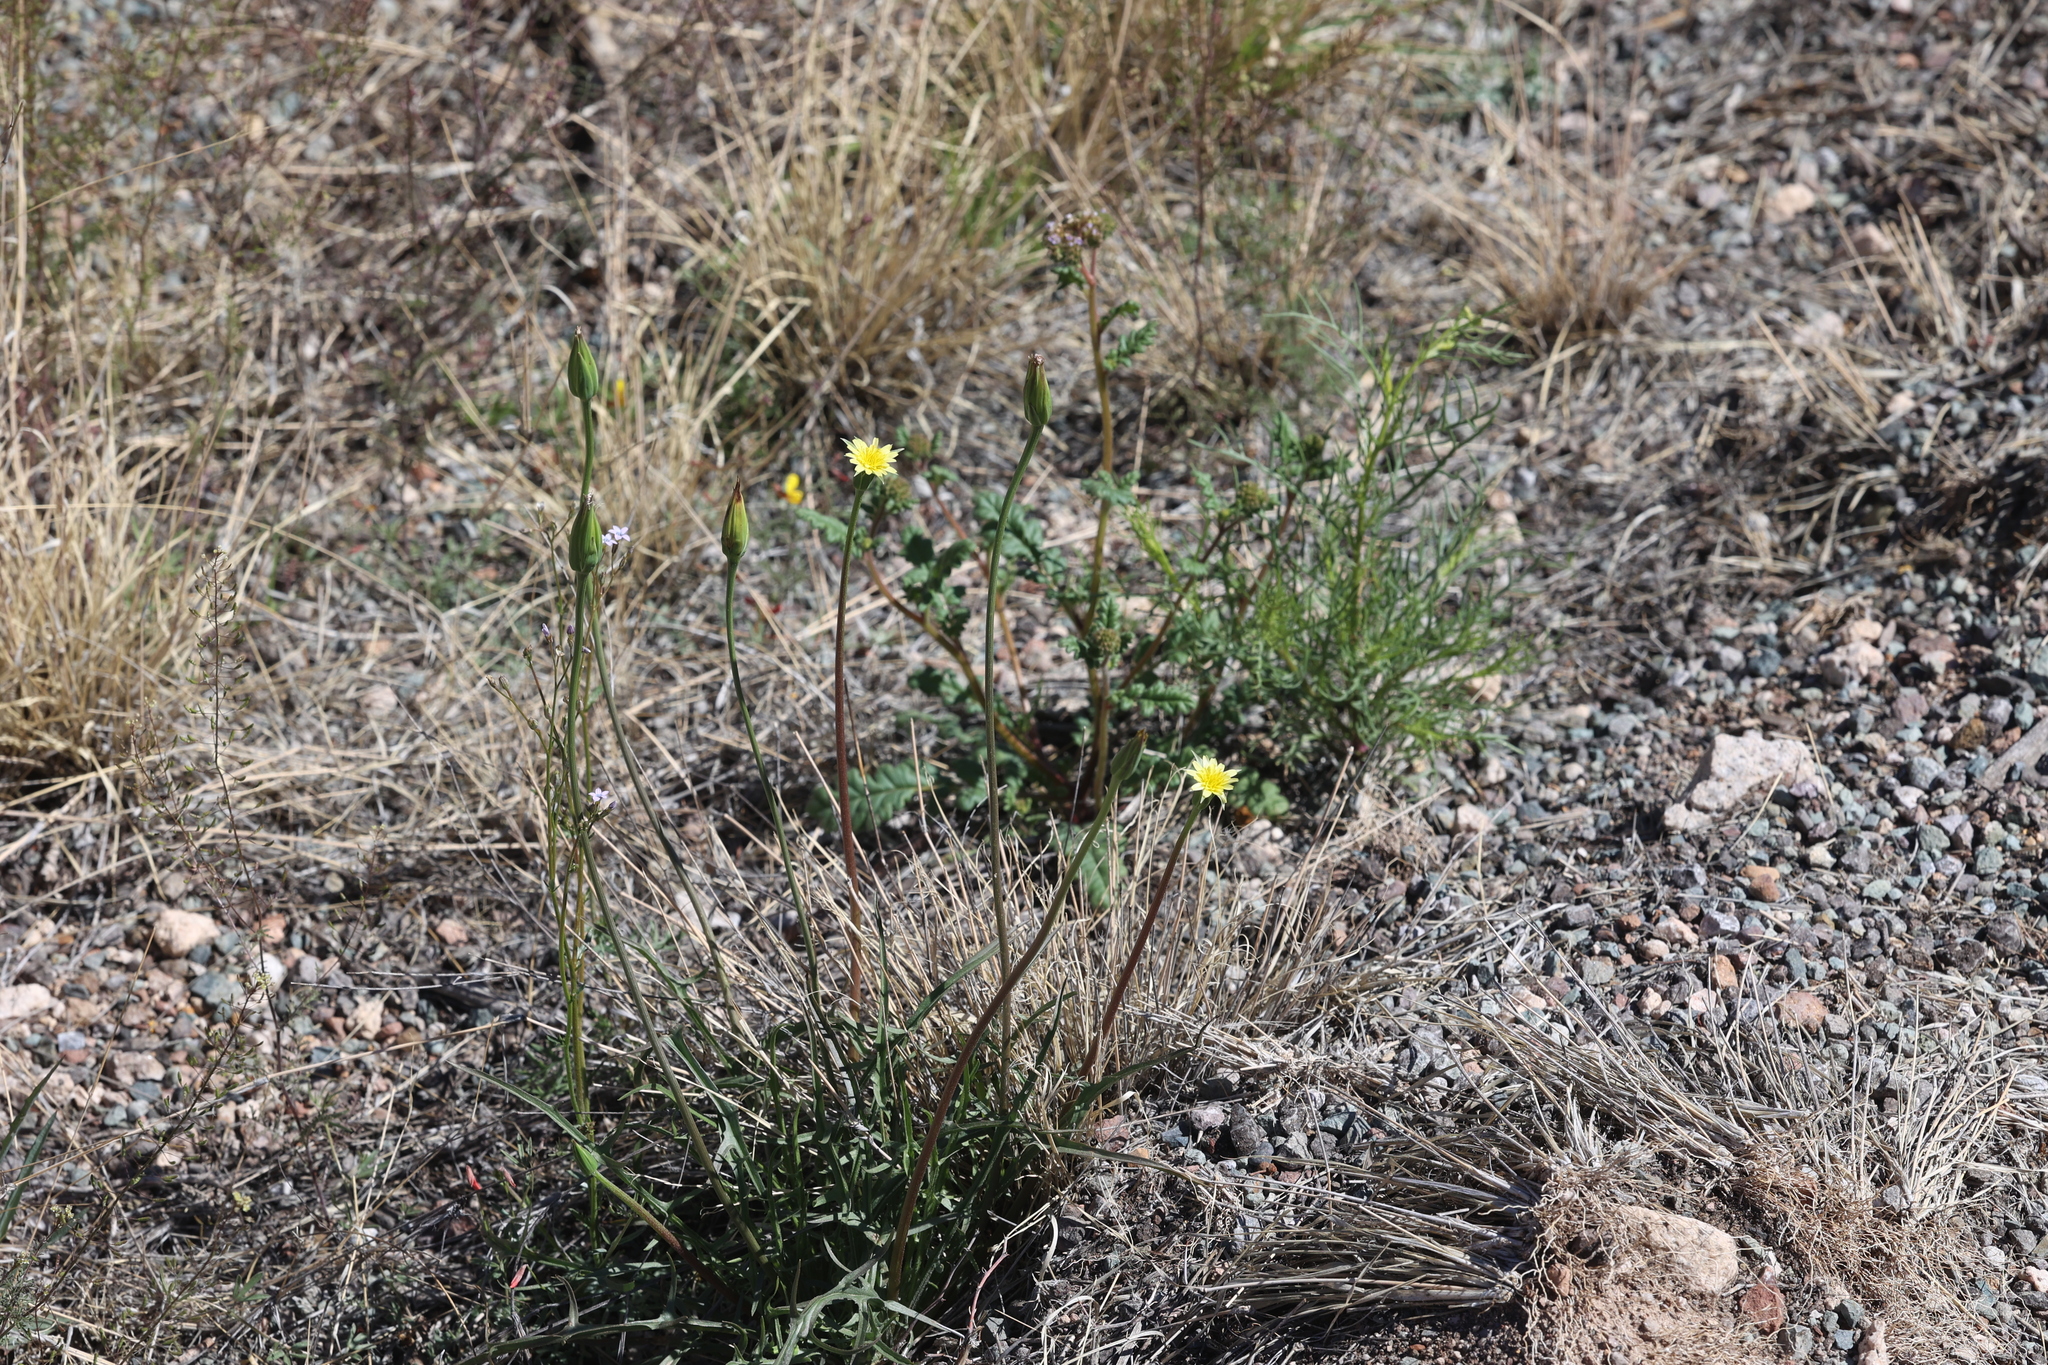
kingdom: Plantae
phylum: Tracheophyta
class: Magnoliopsida
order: Asterales
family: Asteraceae
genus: Microseris
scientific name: Microseris lindleyi
